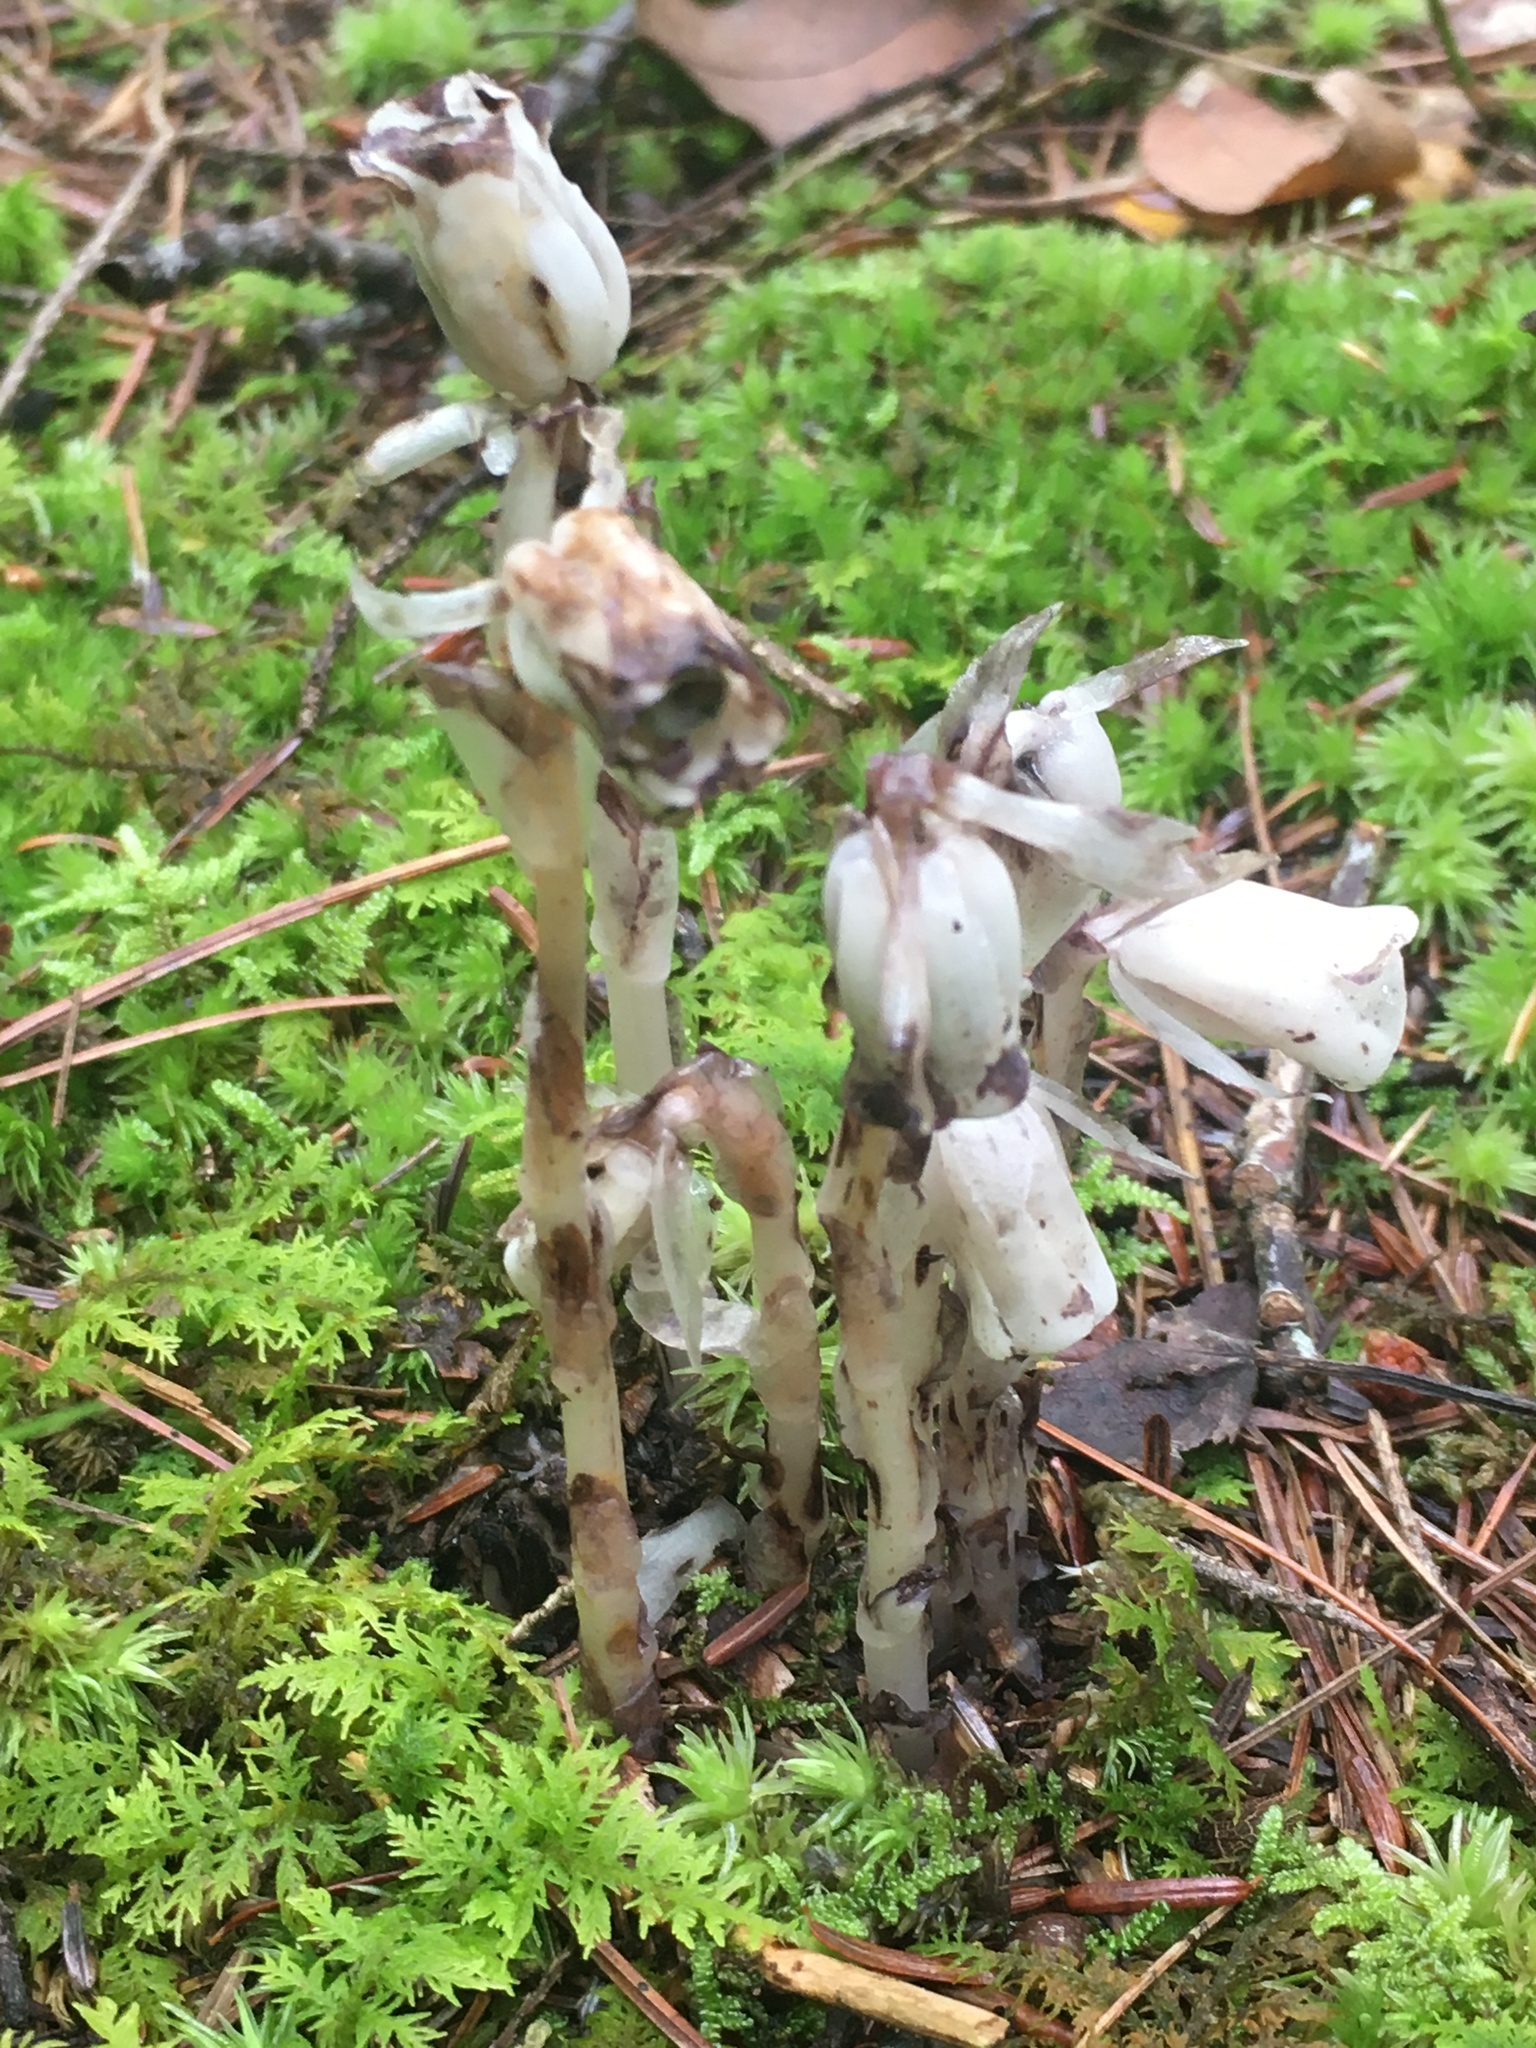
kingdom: Plantae
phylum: Tracheophyta
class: Magnoliopsida
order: Ericales
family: Ericaceae
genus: Monotropa
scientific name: Monotropa uniflora
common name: Convulsion root
